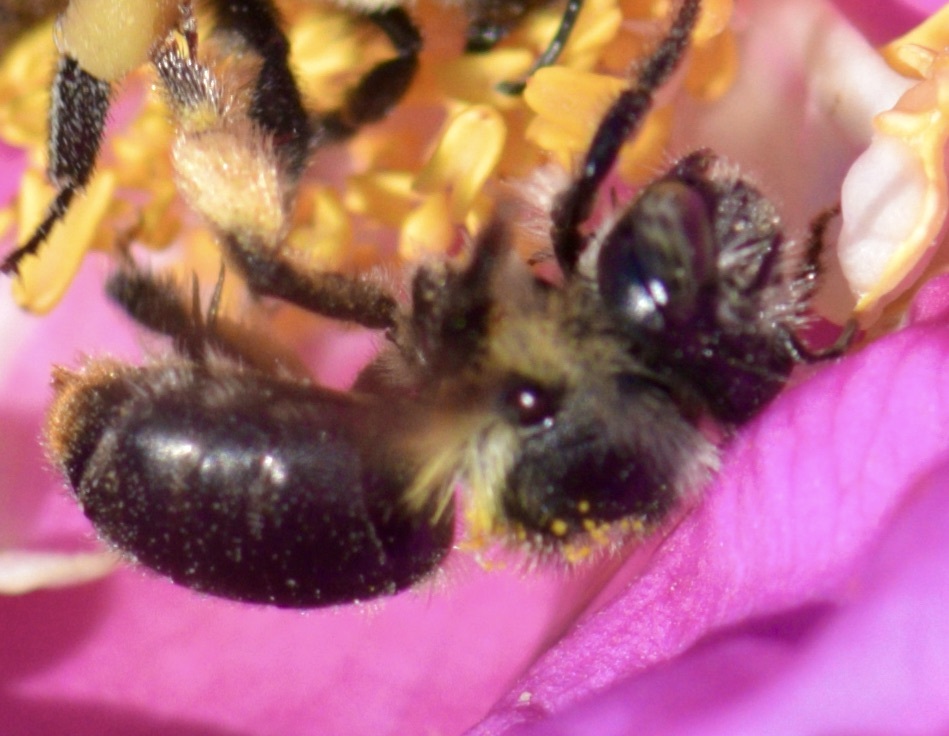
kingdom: Animalia
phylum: Arthropoda
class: Insecta
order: Hymenoptera
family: Apidae
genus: Anthophora
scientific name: Anthophora terminalis
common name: Orange-tipped wood-digger bee
